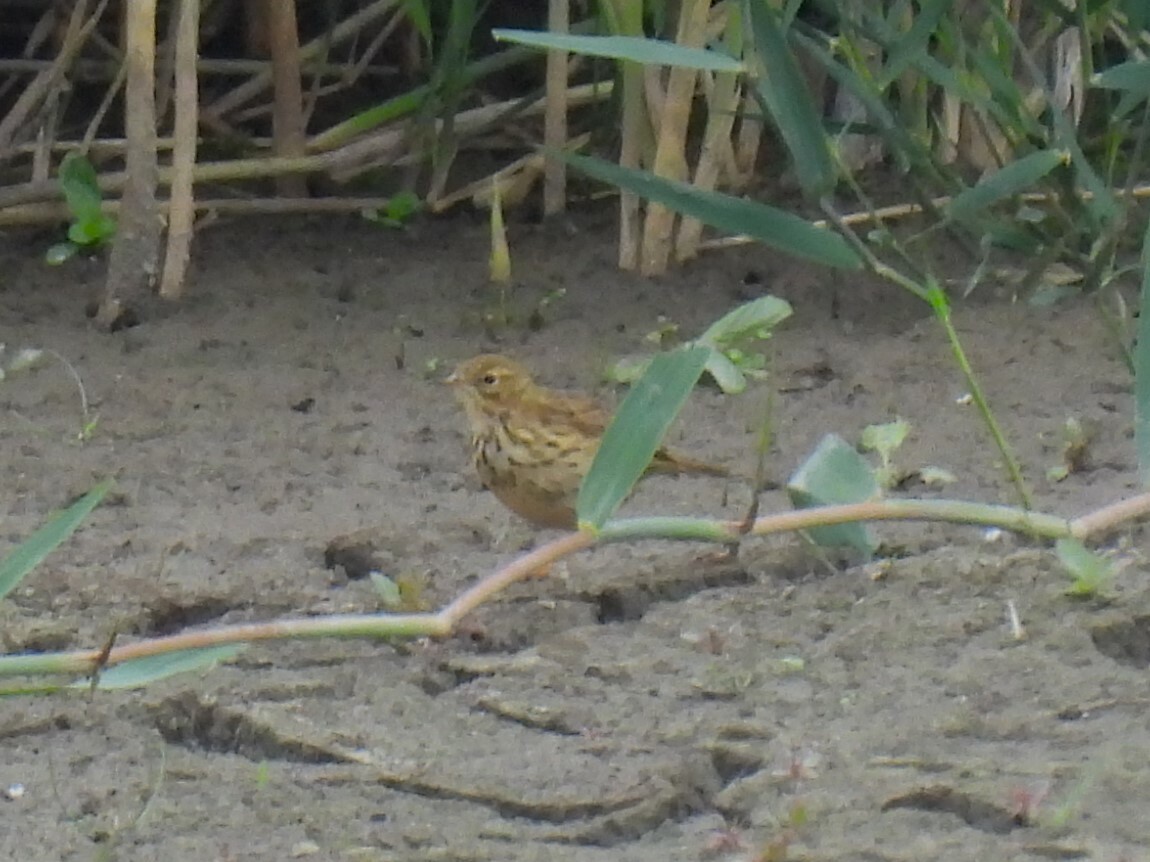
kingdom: Animalia
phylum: Chordata
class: Aves
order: Passeriformes
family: Motacillidae
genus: Anthus
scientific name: Anthus pratensis
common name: Meadow pipit
